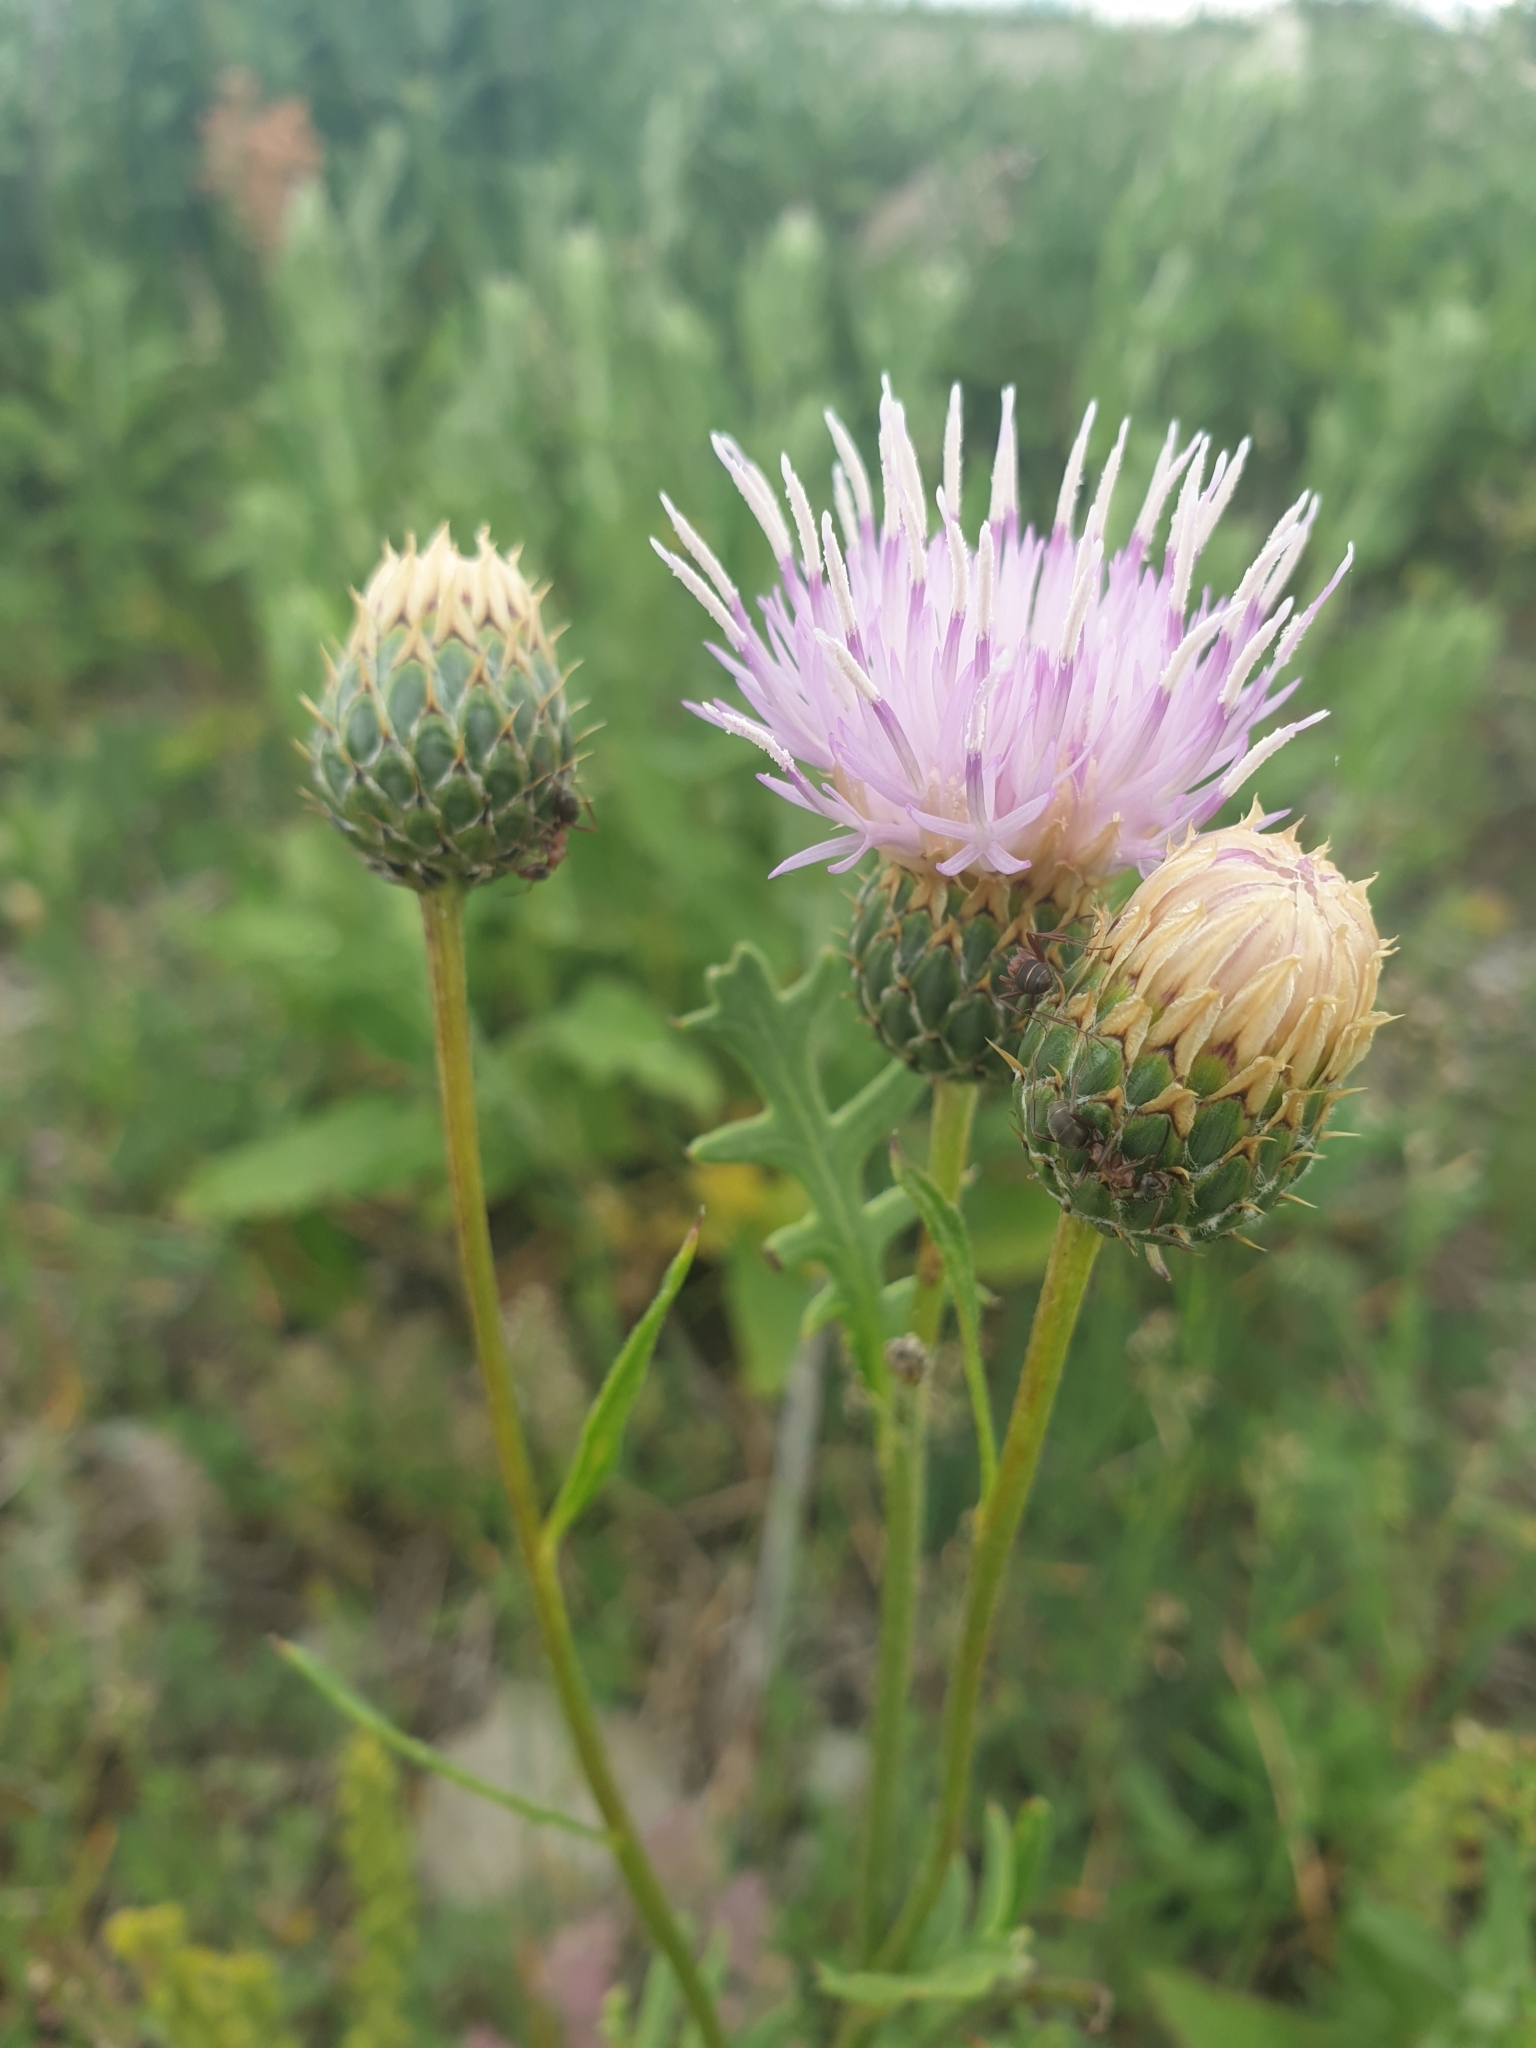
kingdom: Plantae
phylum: Tracheophyta
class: Magnoliopsida
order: Asterales
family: Asteraceae
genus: Klasea
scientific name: Klasea radiata
